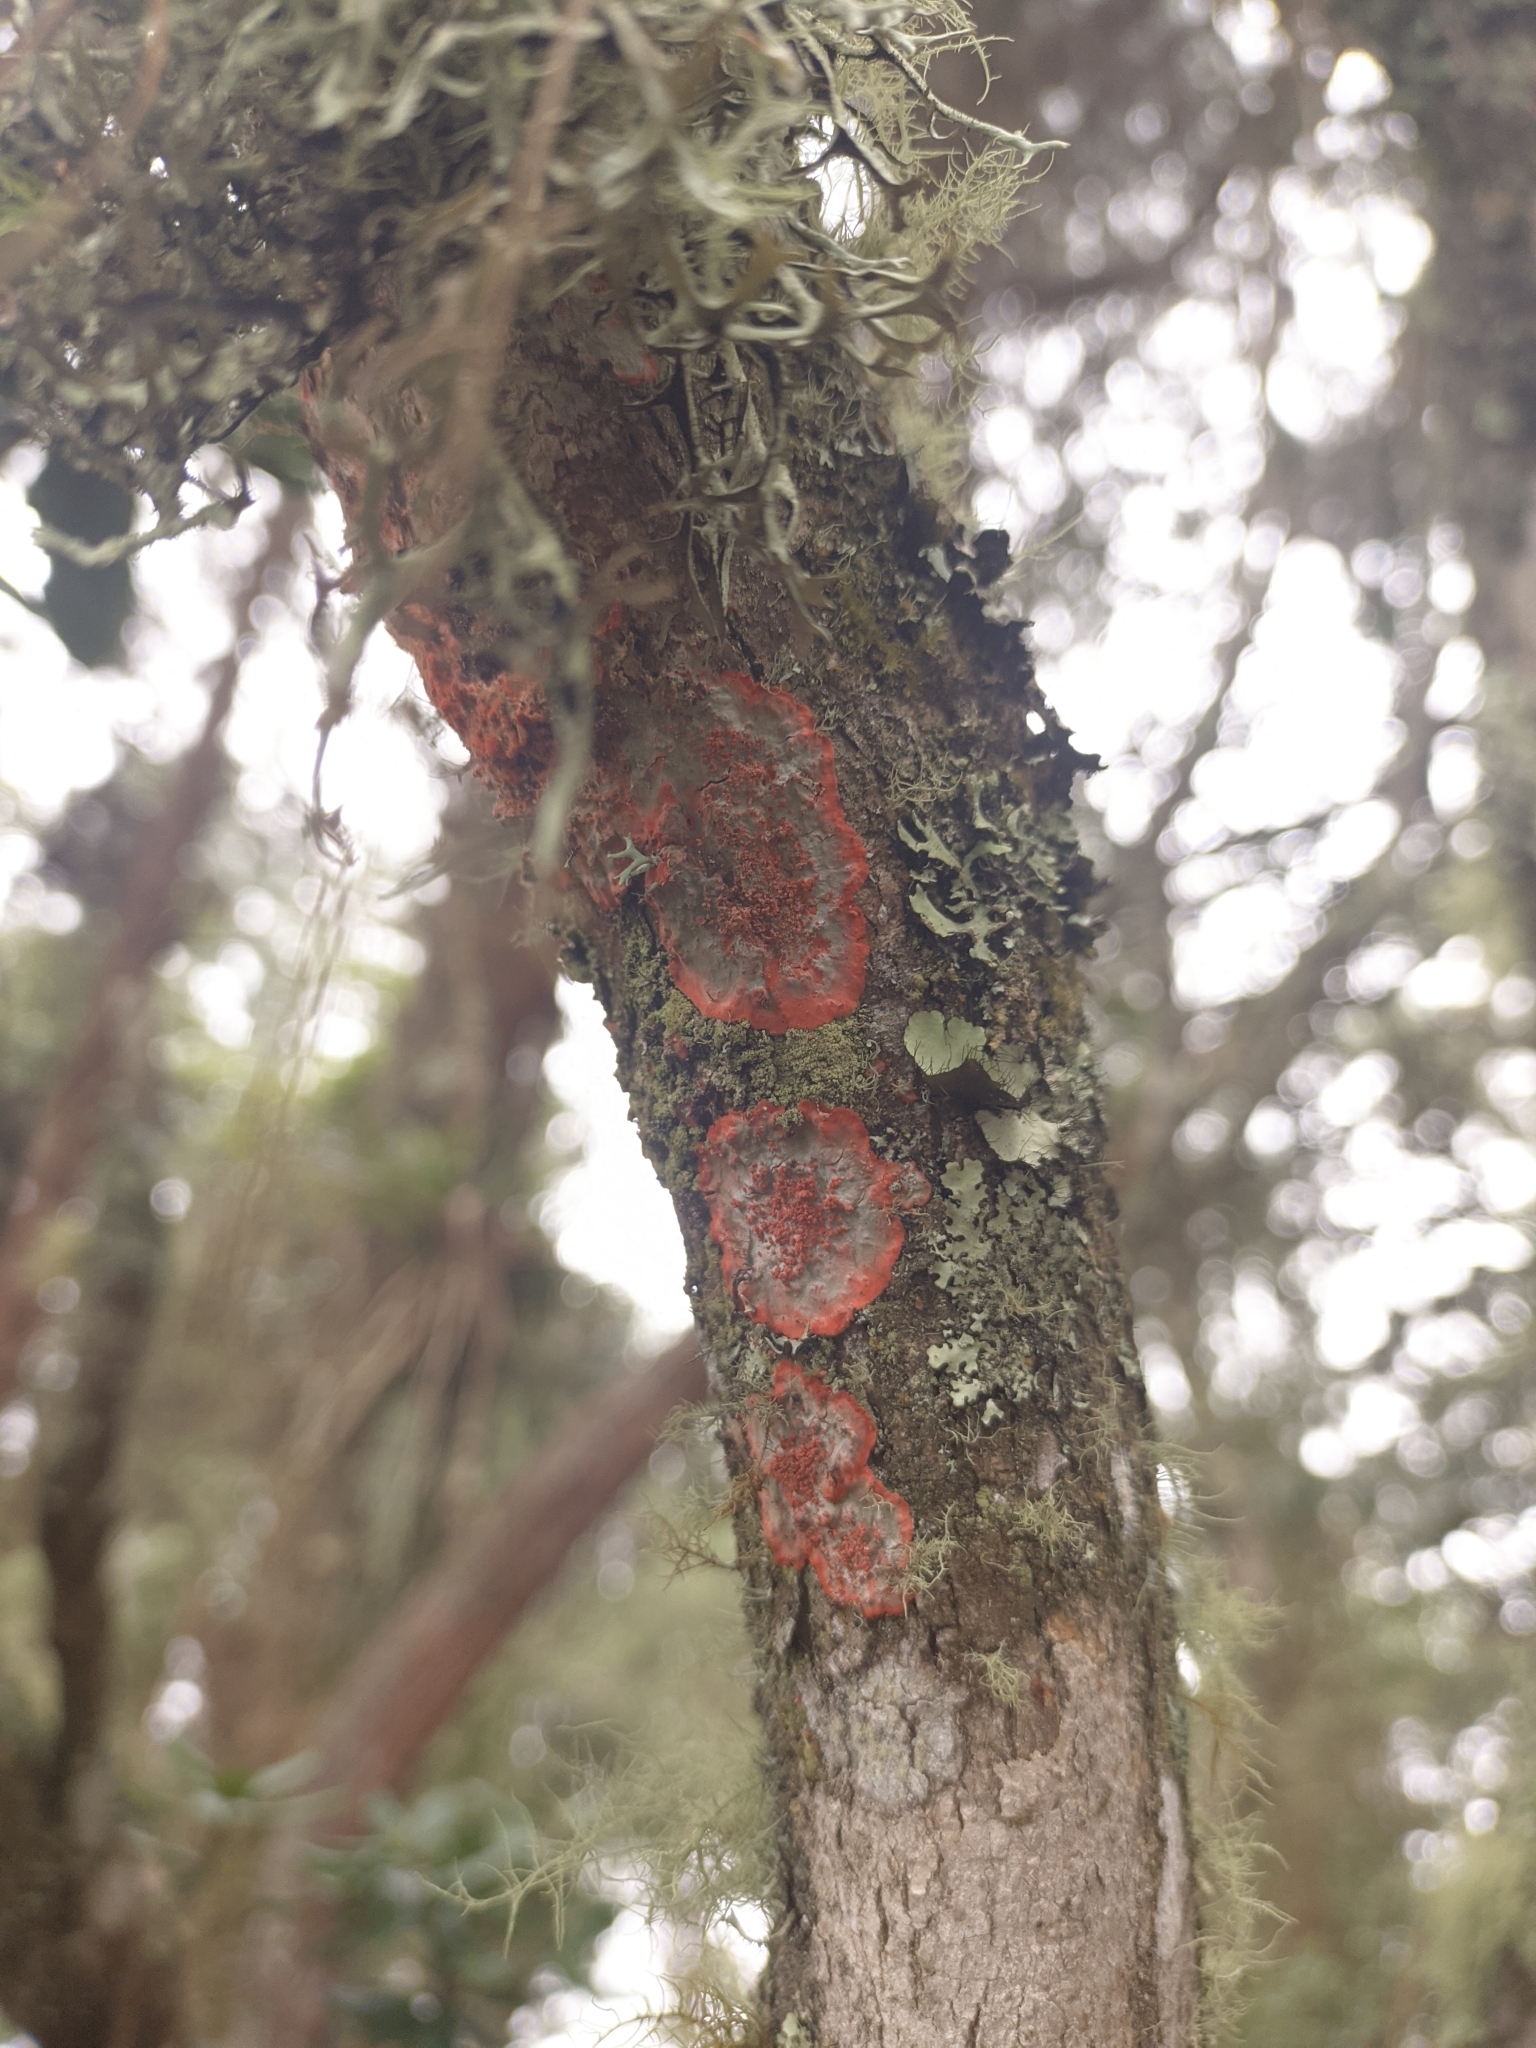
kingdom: Fungi
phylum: Ascomycota
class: Arthoniomycetes
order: Arthoniales
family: Arthoniaceae
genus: Herpothallon
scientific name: Herpothallon rubrocinctum
